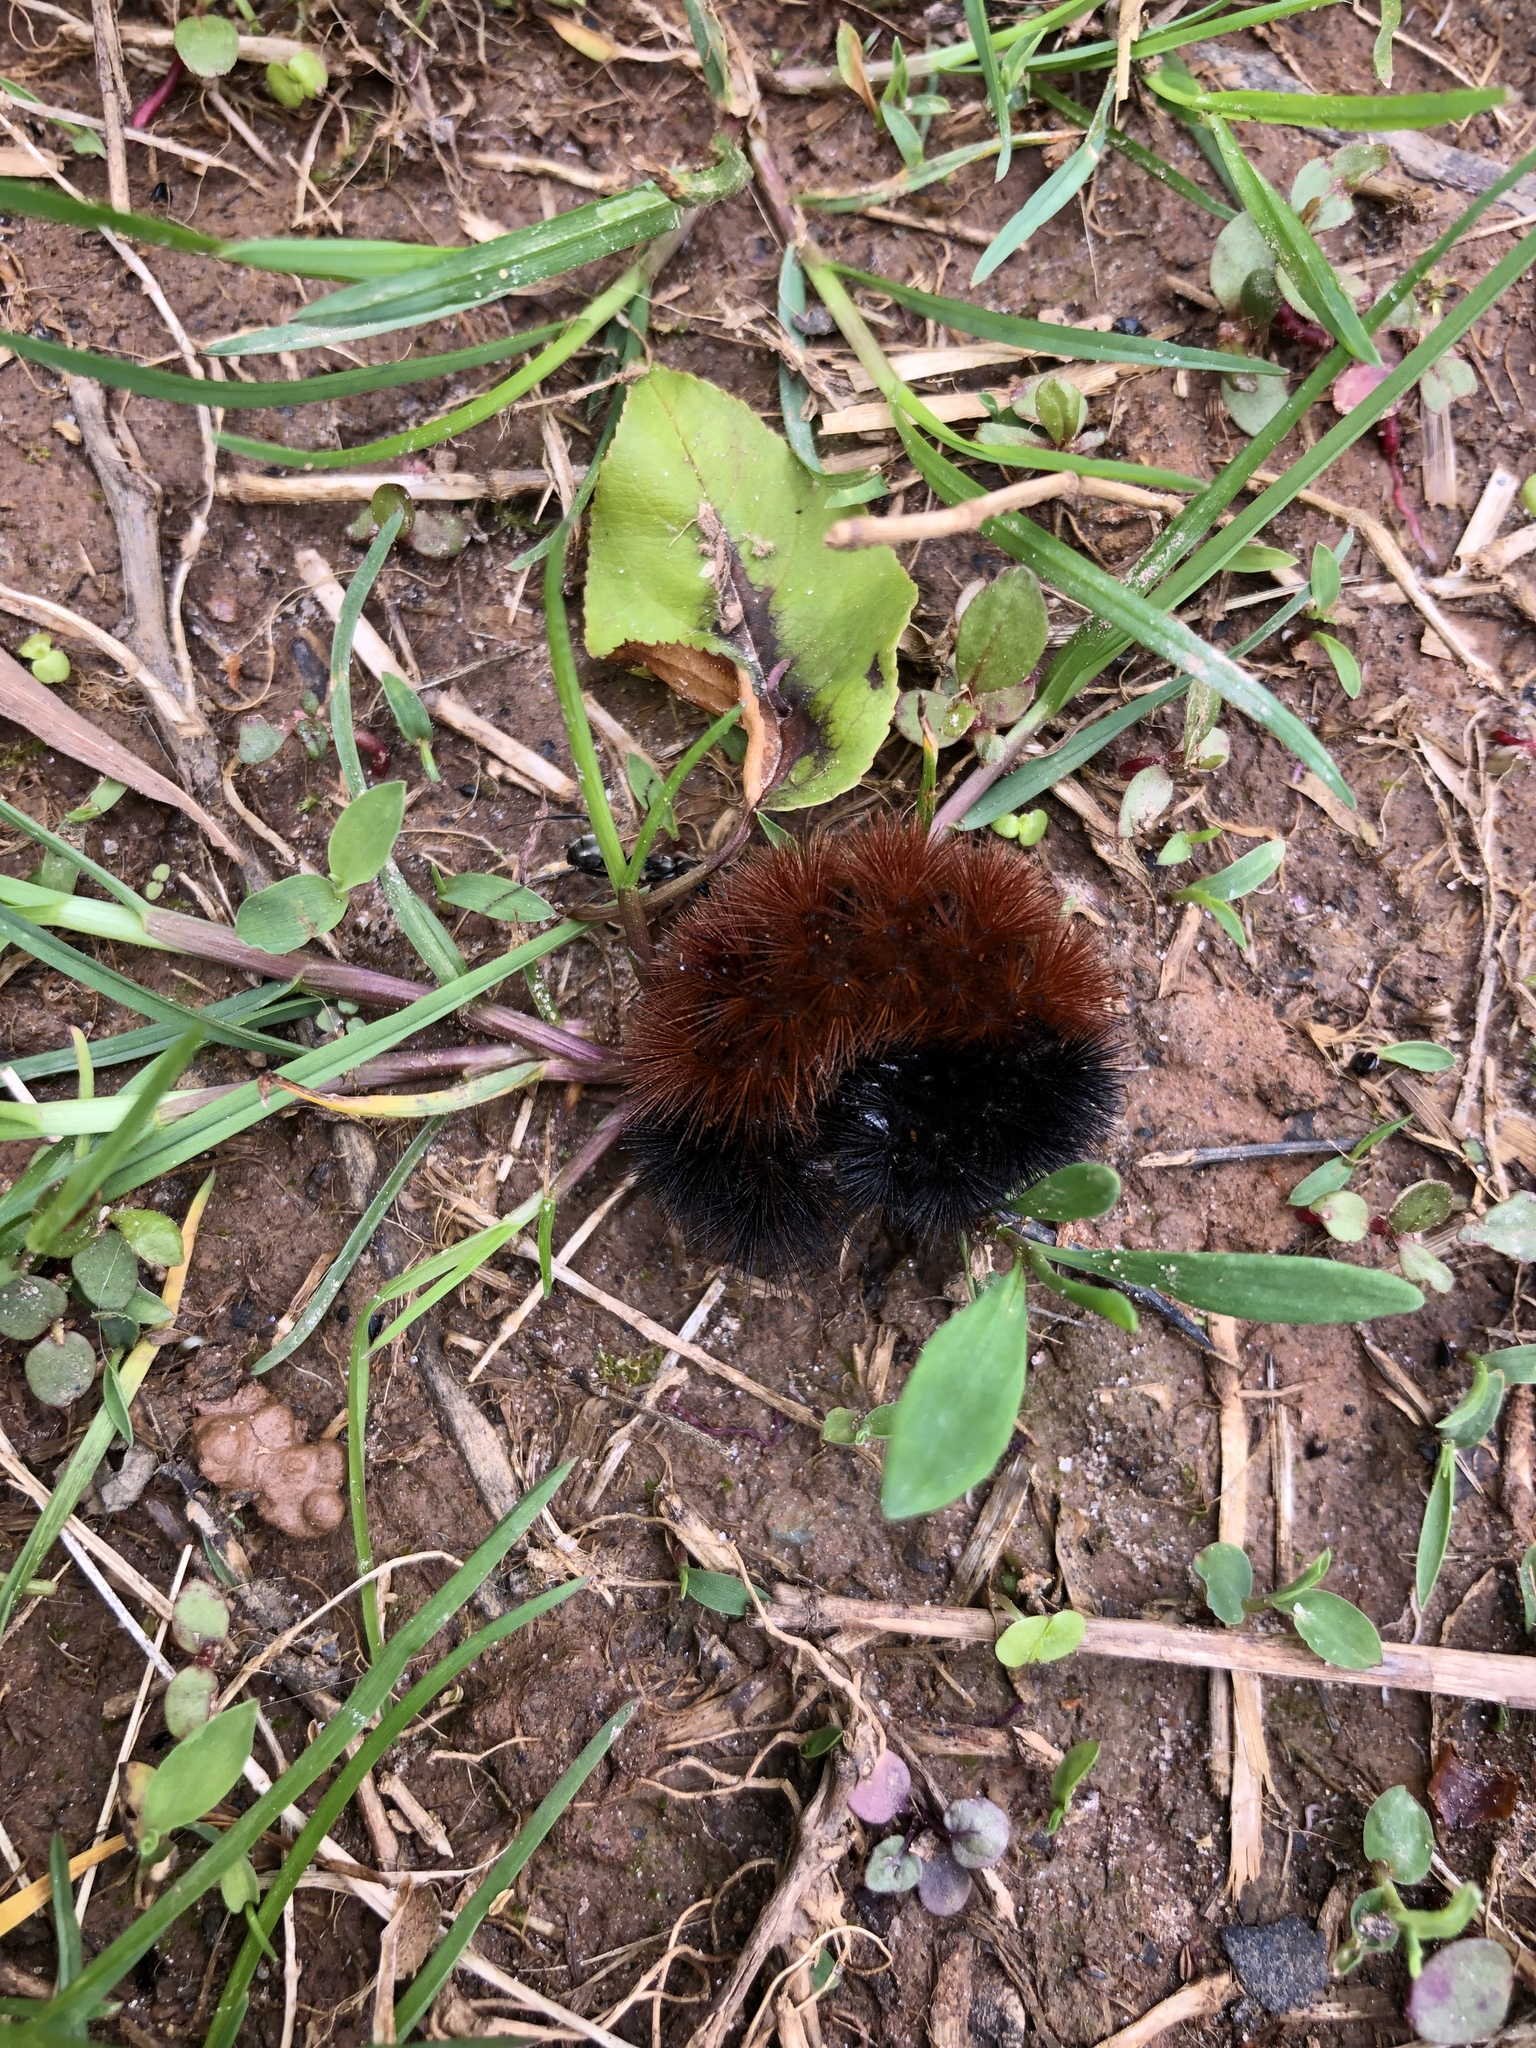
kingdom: Animalia
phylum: Arthropoda
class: Insecta
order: Lepidoptera
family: Erebidae
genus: Pyrrharctia
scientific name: Pyrrharctia isabella
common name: Isabella tiger moth
